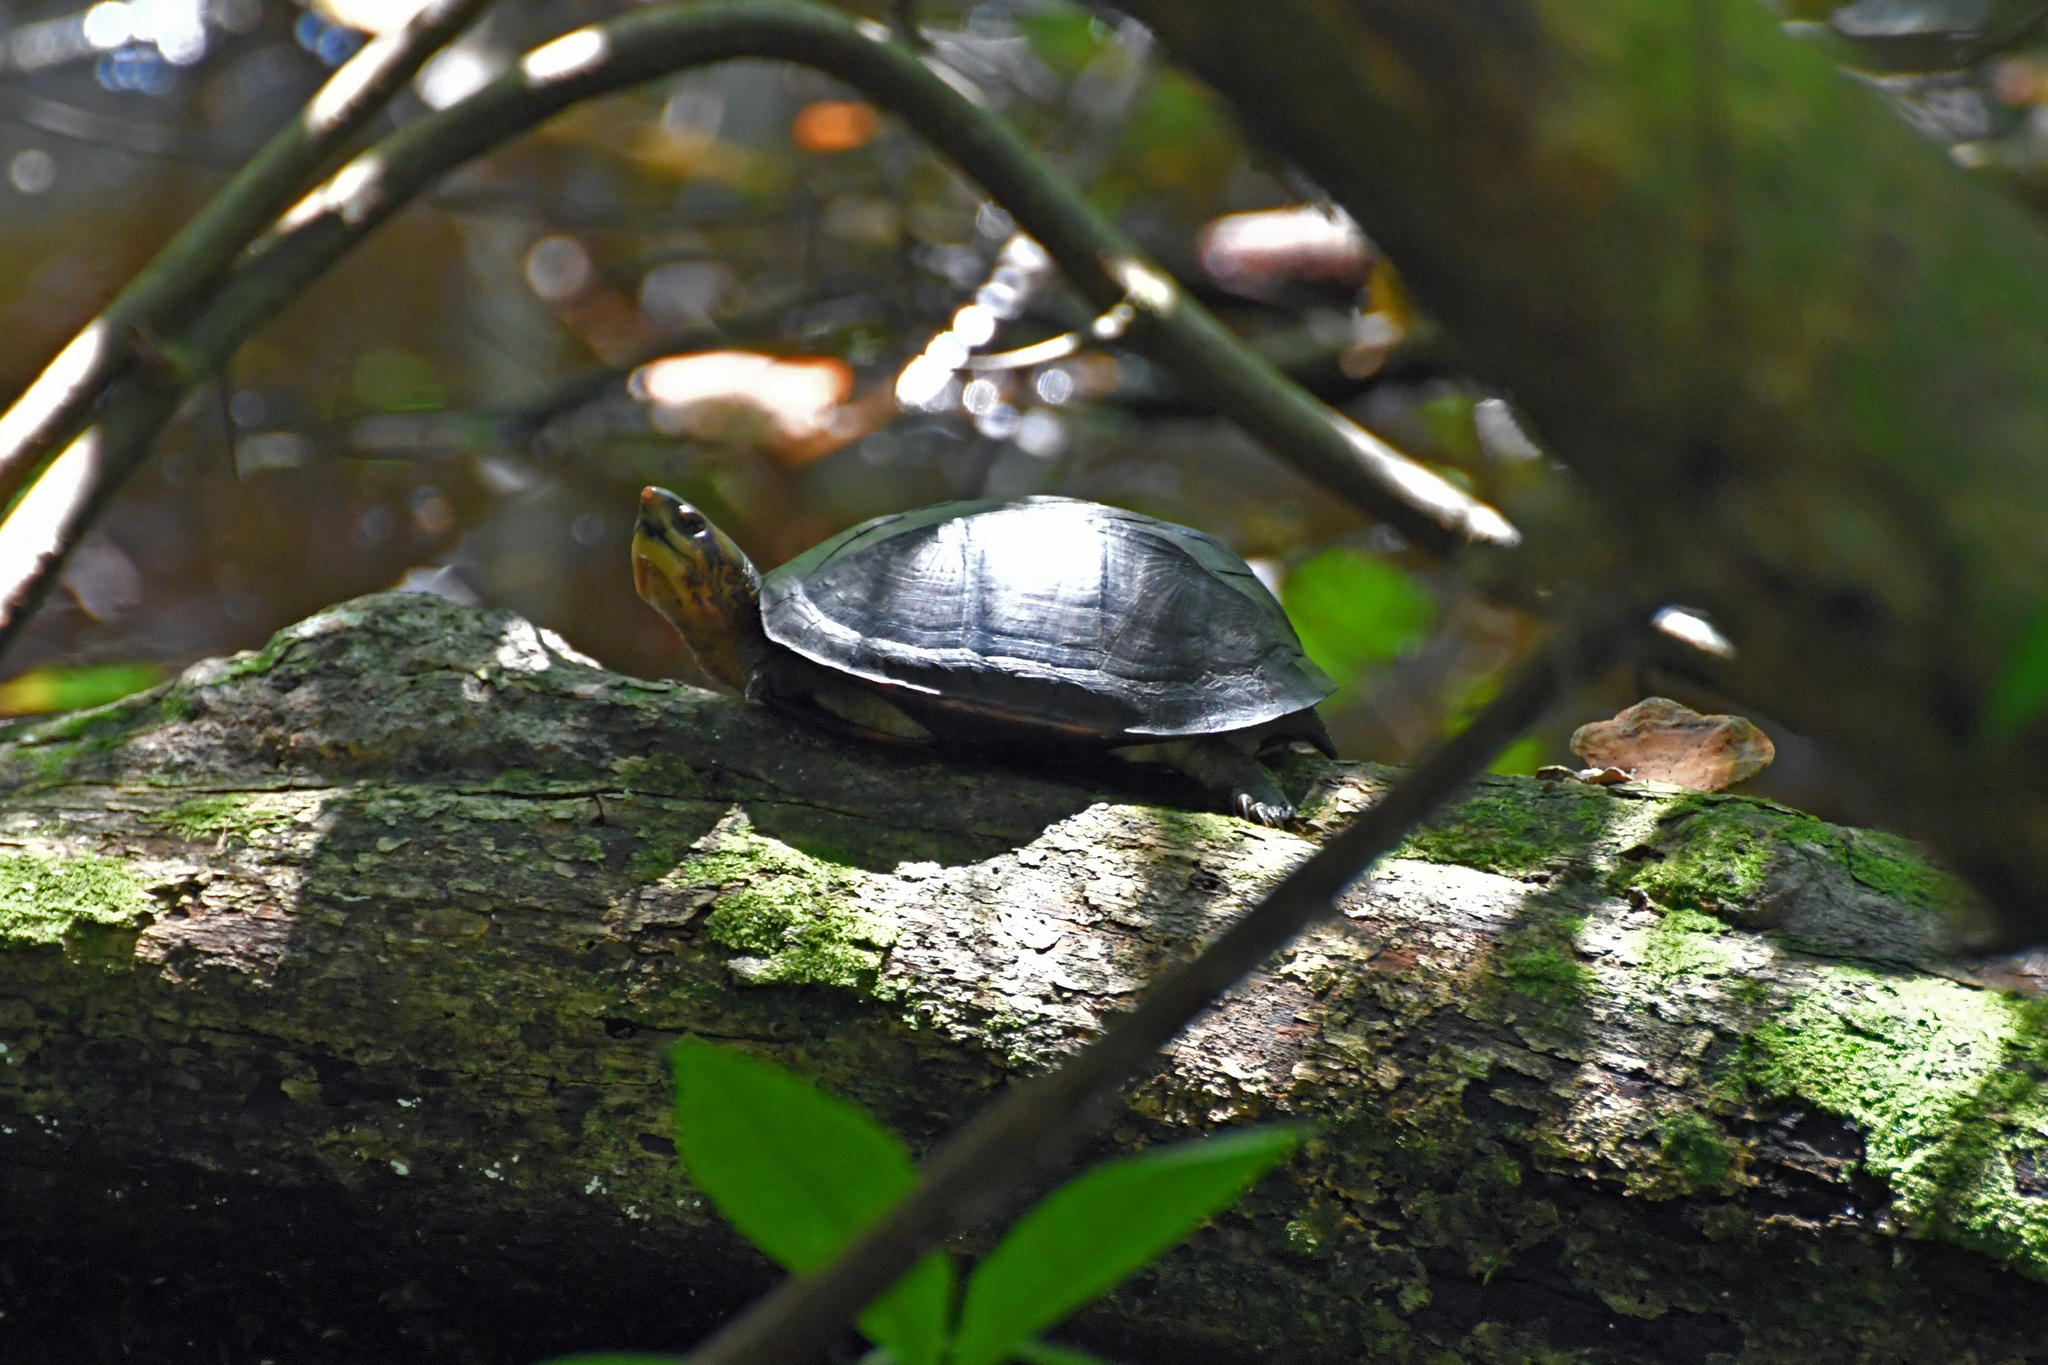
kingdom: Animalia
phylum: Chordata
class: Testudines
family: Kinosternidae
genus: Kinosternon
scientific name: Kinosternon scorpioides
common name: Scorpion mud turtle
